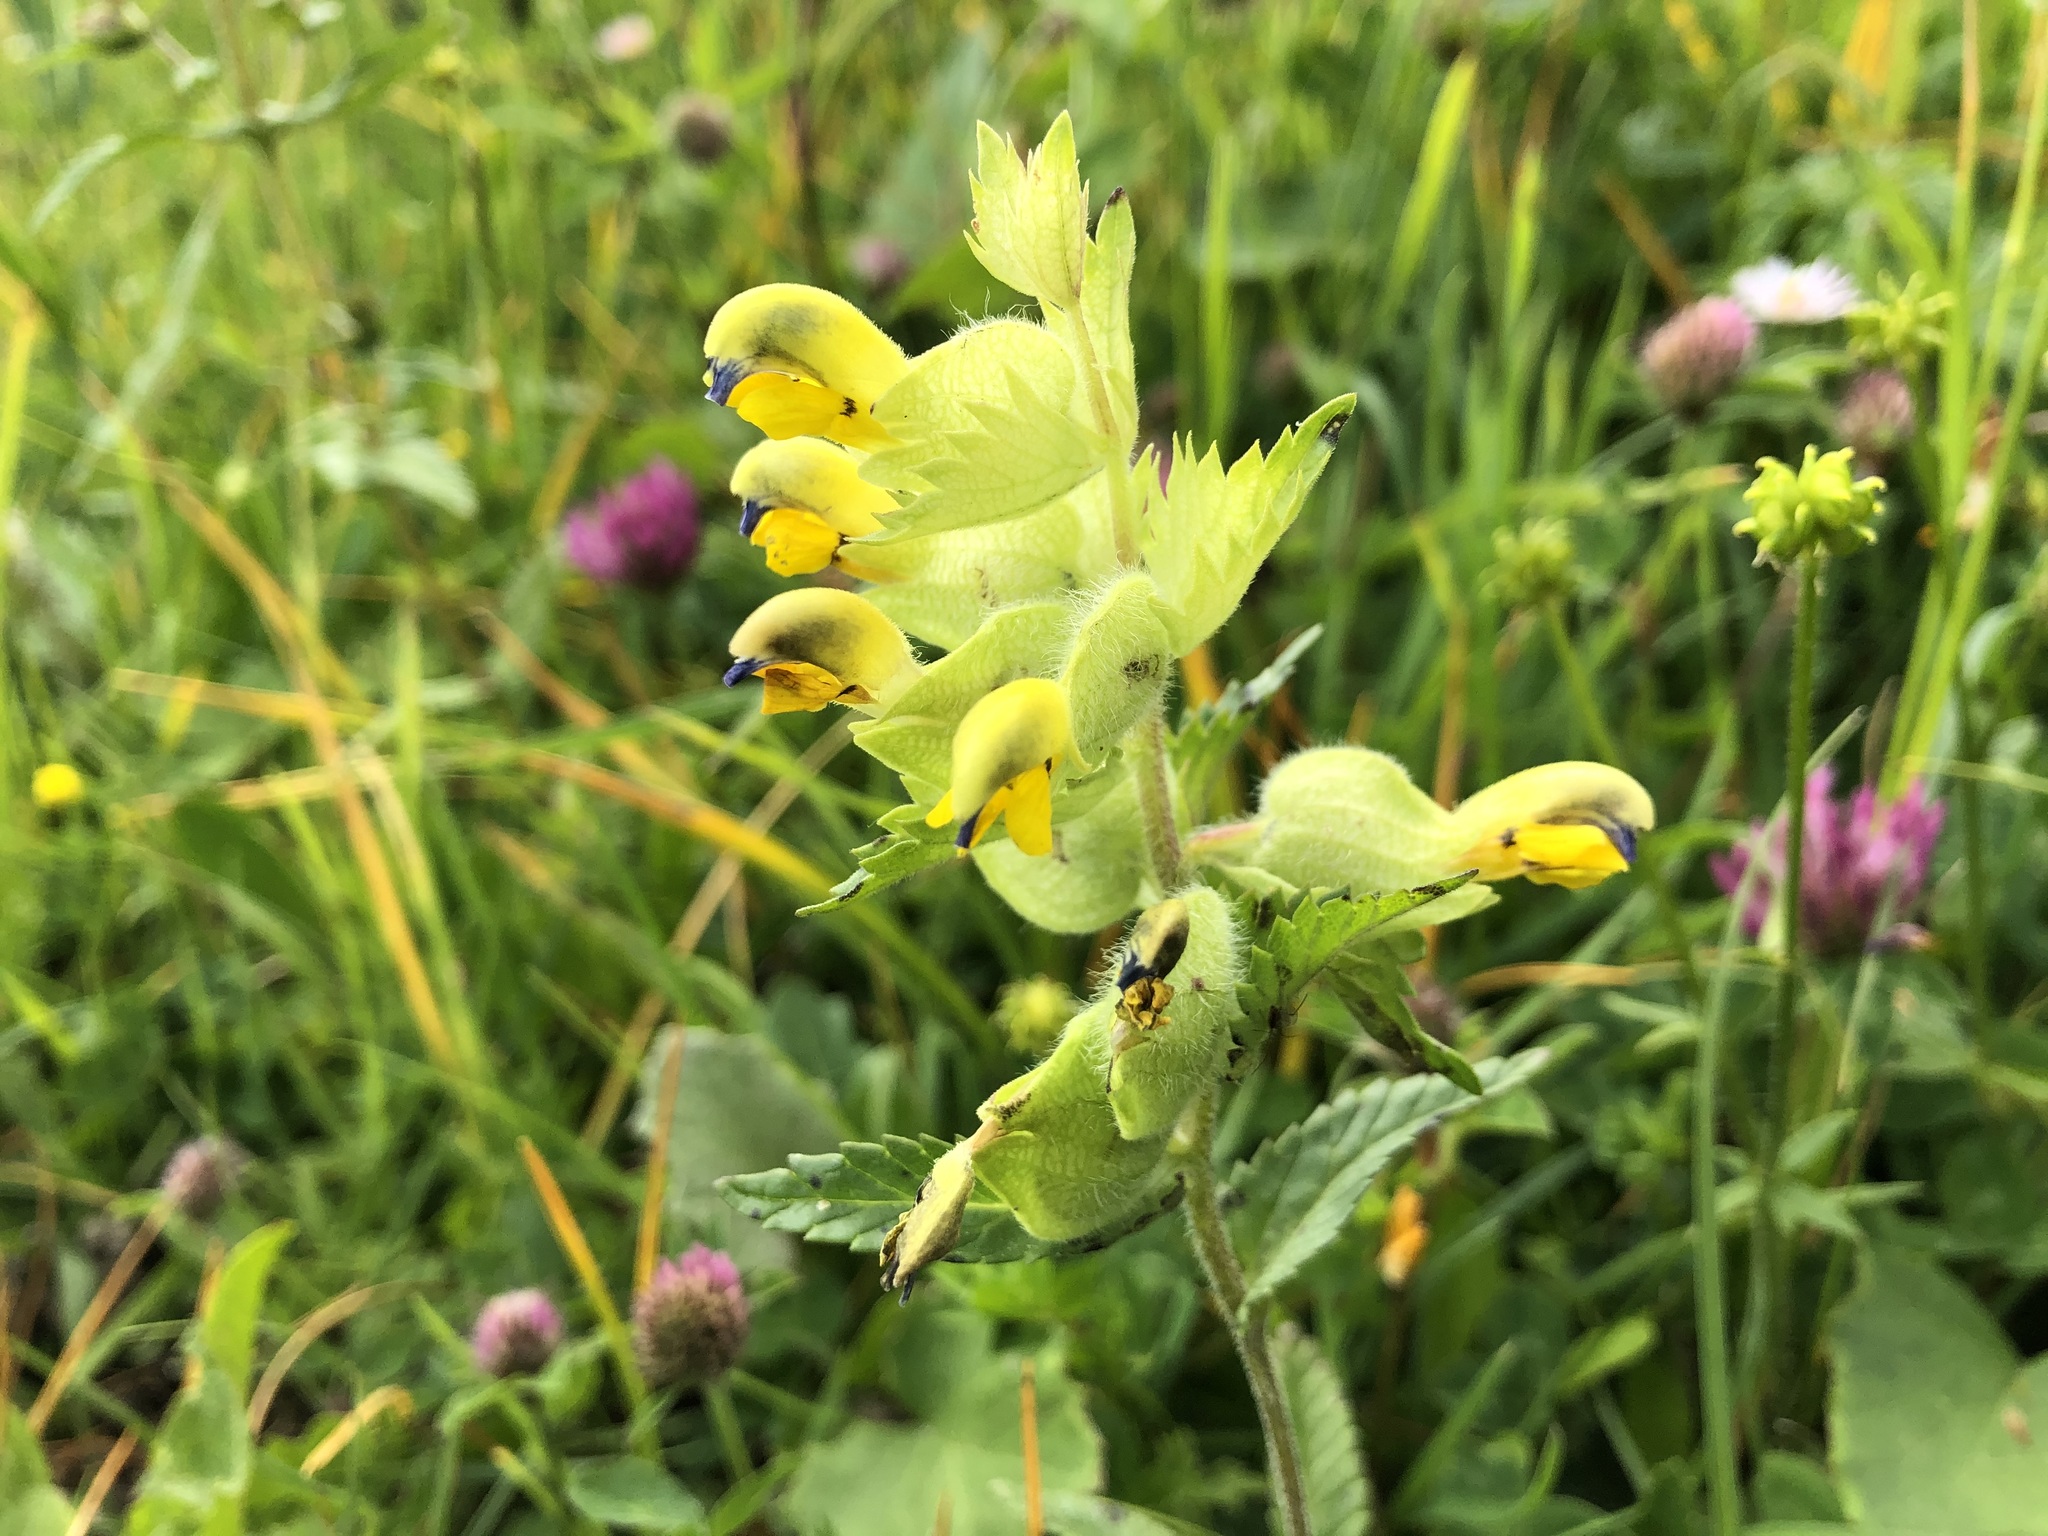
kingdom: Plantae
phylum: Tracheophyta
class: Magnoliopsida
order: Lamiales
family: Orobanchaceae
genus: Rhinanthus
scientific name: Rhinanthus alectorolophus
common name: Greater yellow-rattle
